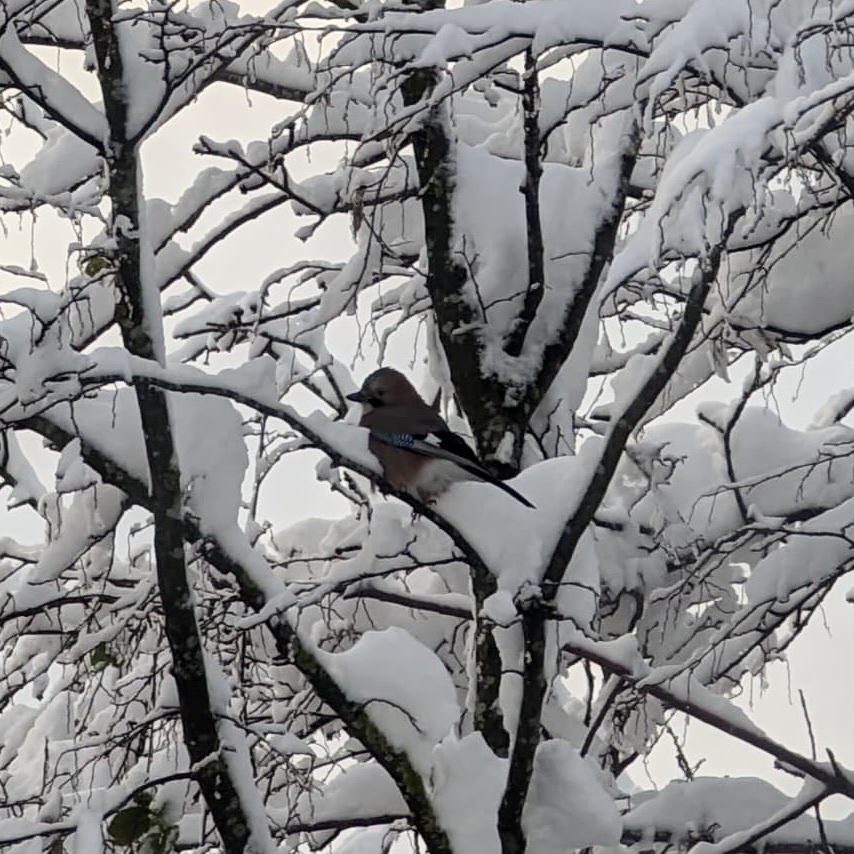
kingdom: Animalia
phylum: Chordata
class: Aves
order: Passeriformes
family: Corvidae
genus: Garrulus
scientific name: Garrulus glandarius
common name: Eurasian jay
